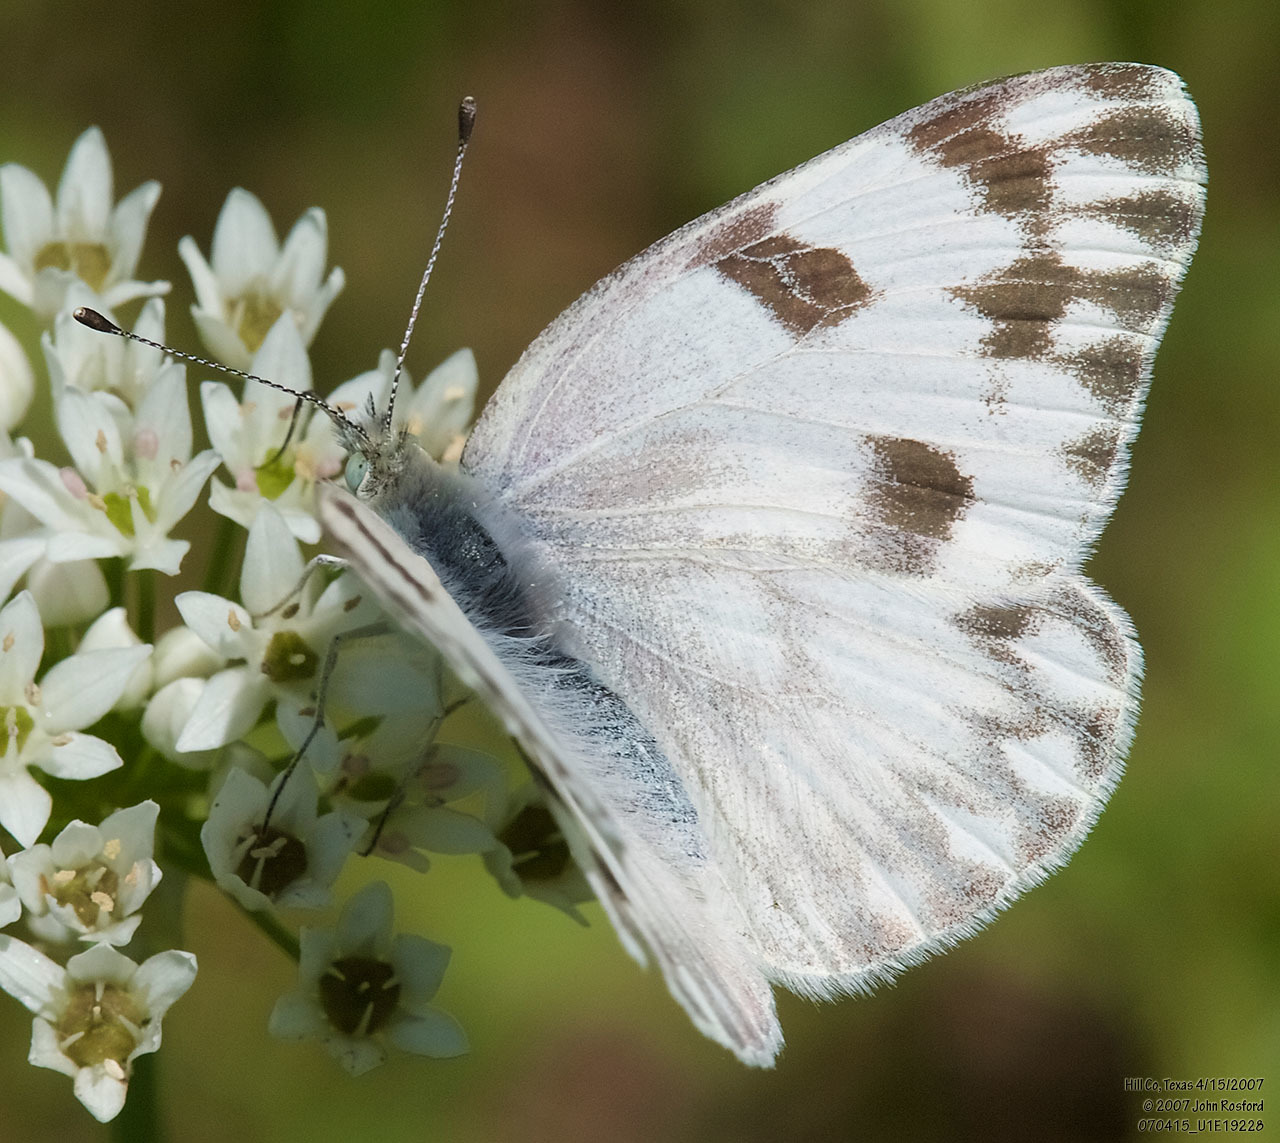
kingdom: Animalia
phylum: Arthropoda
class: Insecta
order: Lepidoptera
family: Pieridae
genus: Pontia
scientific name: Pontia protodice
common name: Checkered white
